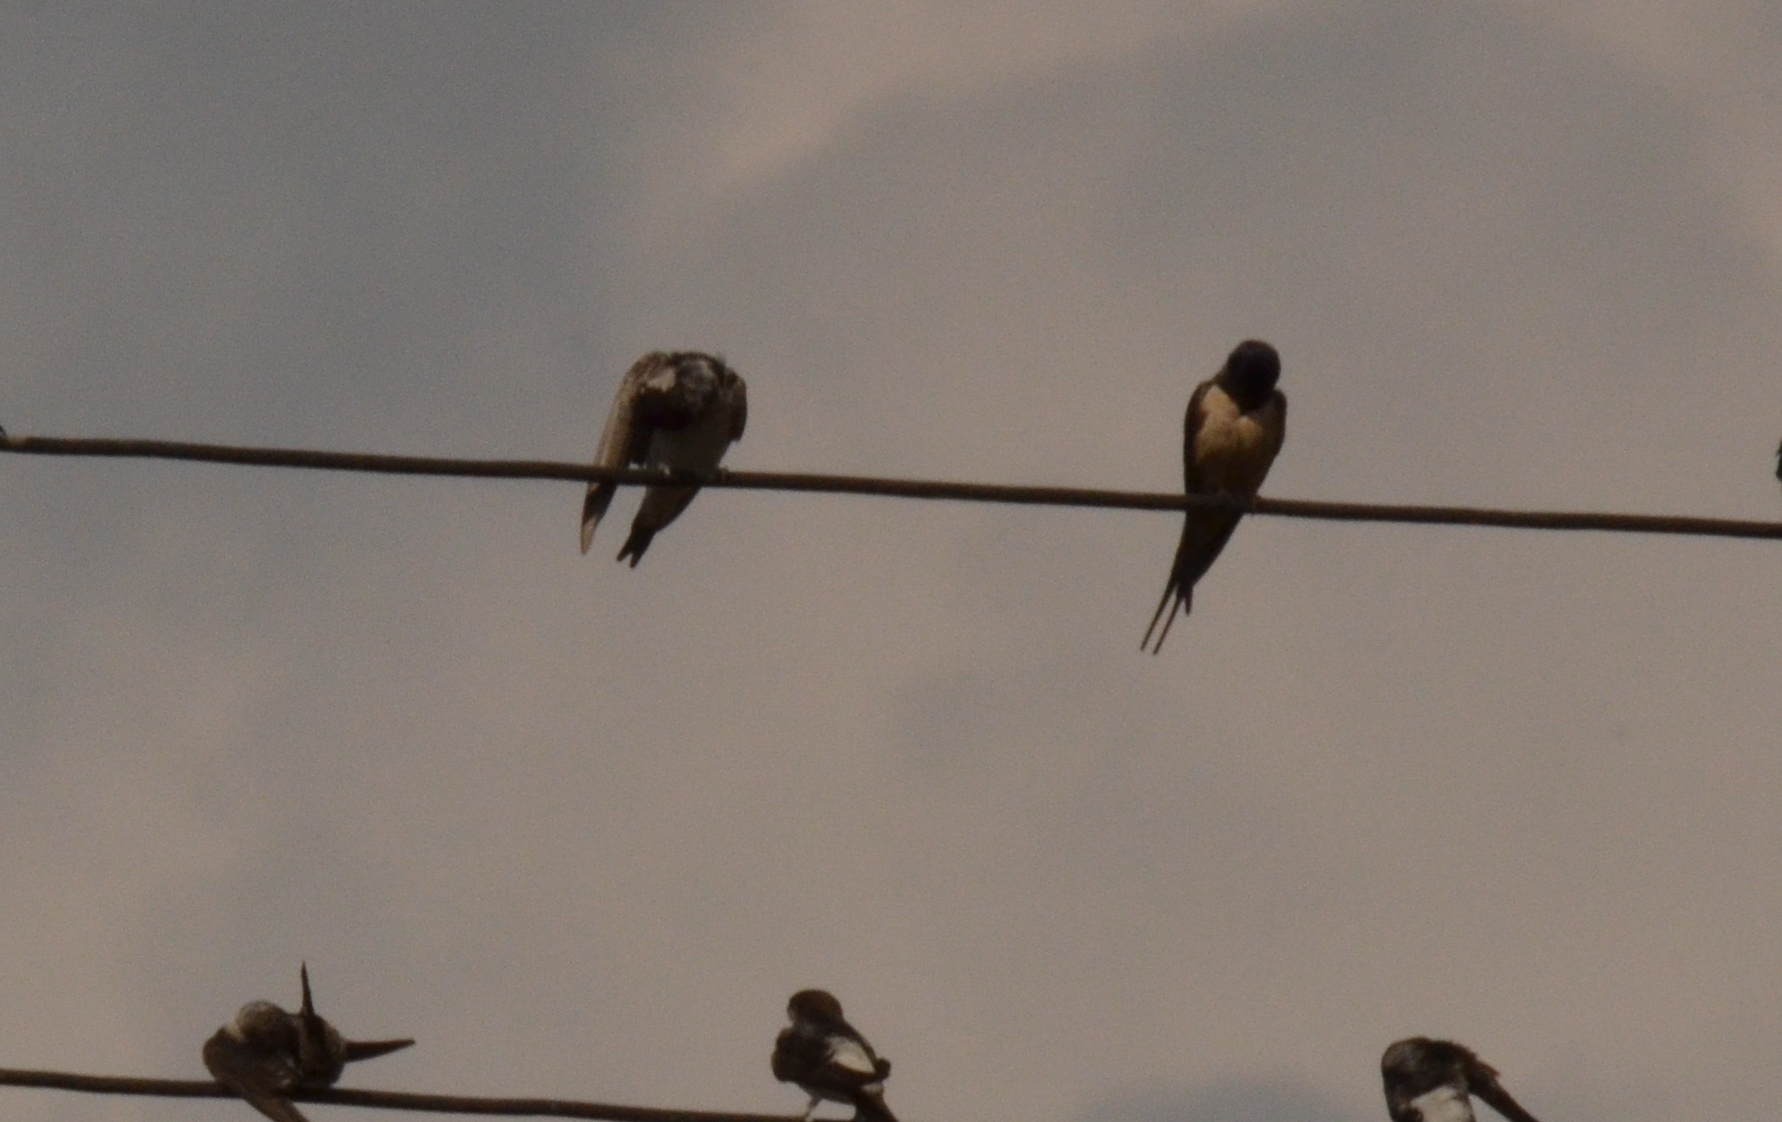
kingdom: Animalia
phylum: Chordata
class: Aves
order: Passeriformes
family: Hirundinidae
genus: Hirundo
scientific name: Hirundo rustica
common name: Barn swallow
